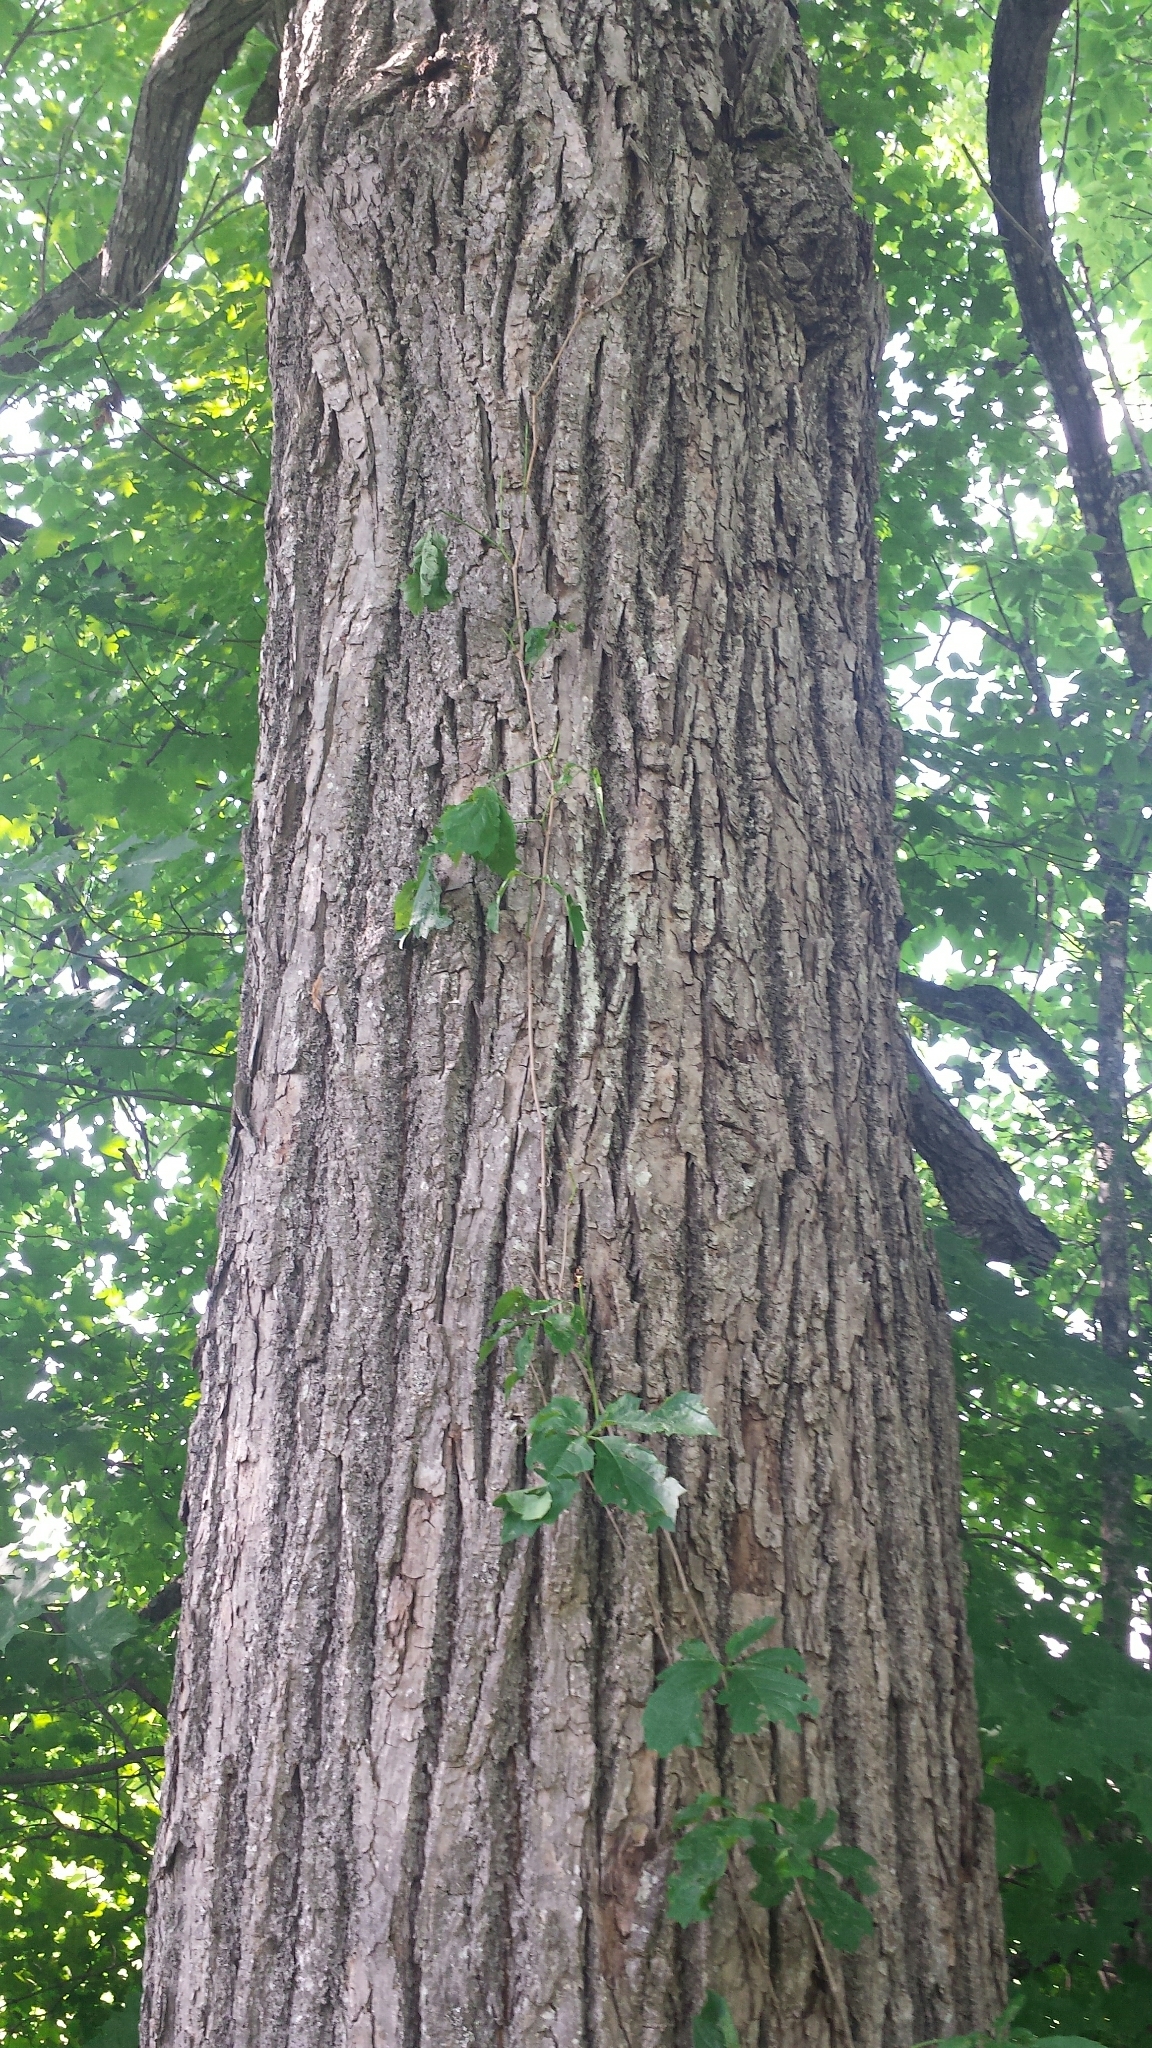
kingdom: Plantae
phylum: Tracheophyta
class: Magnoliopsida
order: Malvales
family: Malvaceae
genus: Tilia
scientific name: Tilia americana
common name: Basswood
